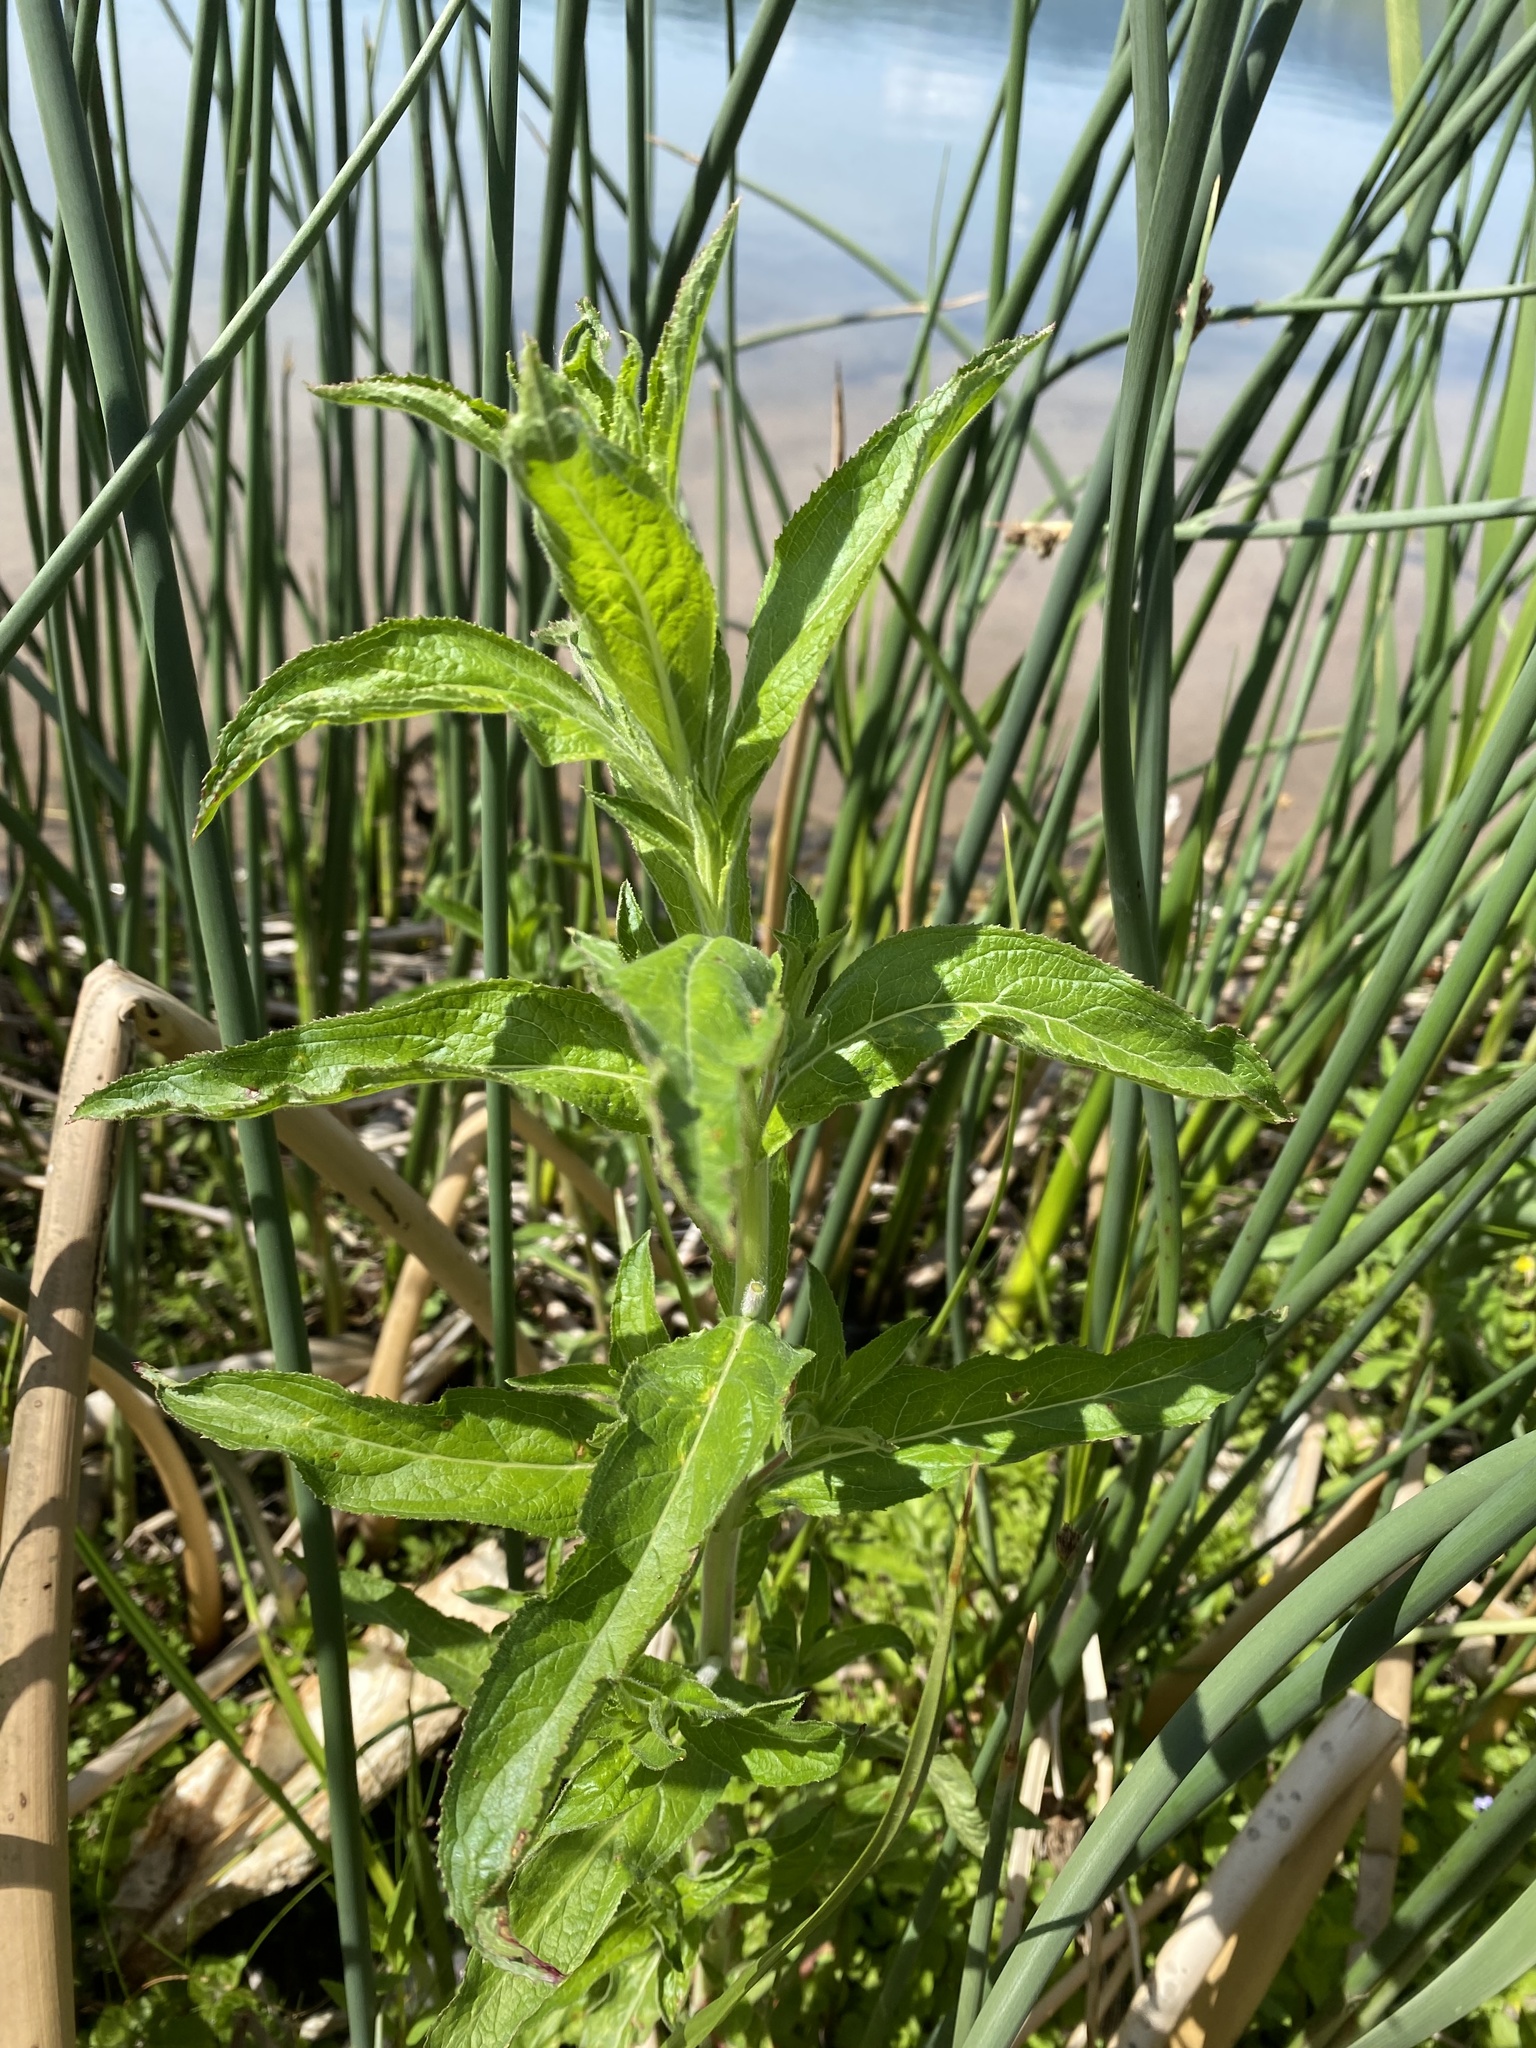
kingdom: Plantae
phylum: Tracheophyta
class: Magnoliopsida
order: Myrtales
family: Onagraceae
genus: Epilobium
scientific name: Epilobium hirsutum
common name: Great willowherb
